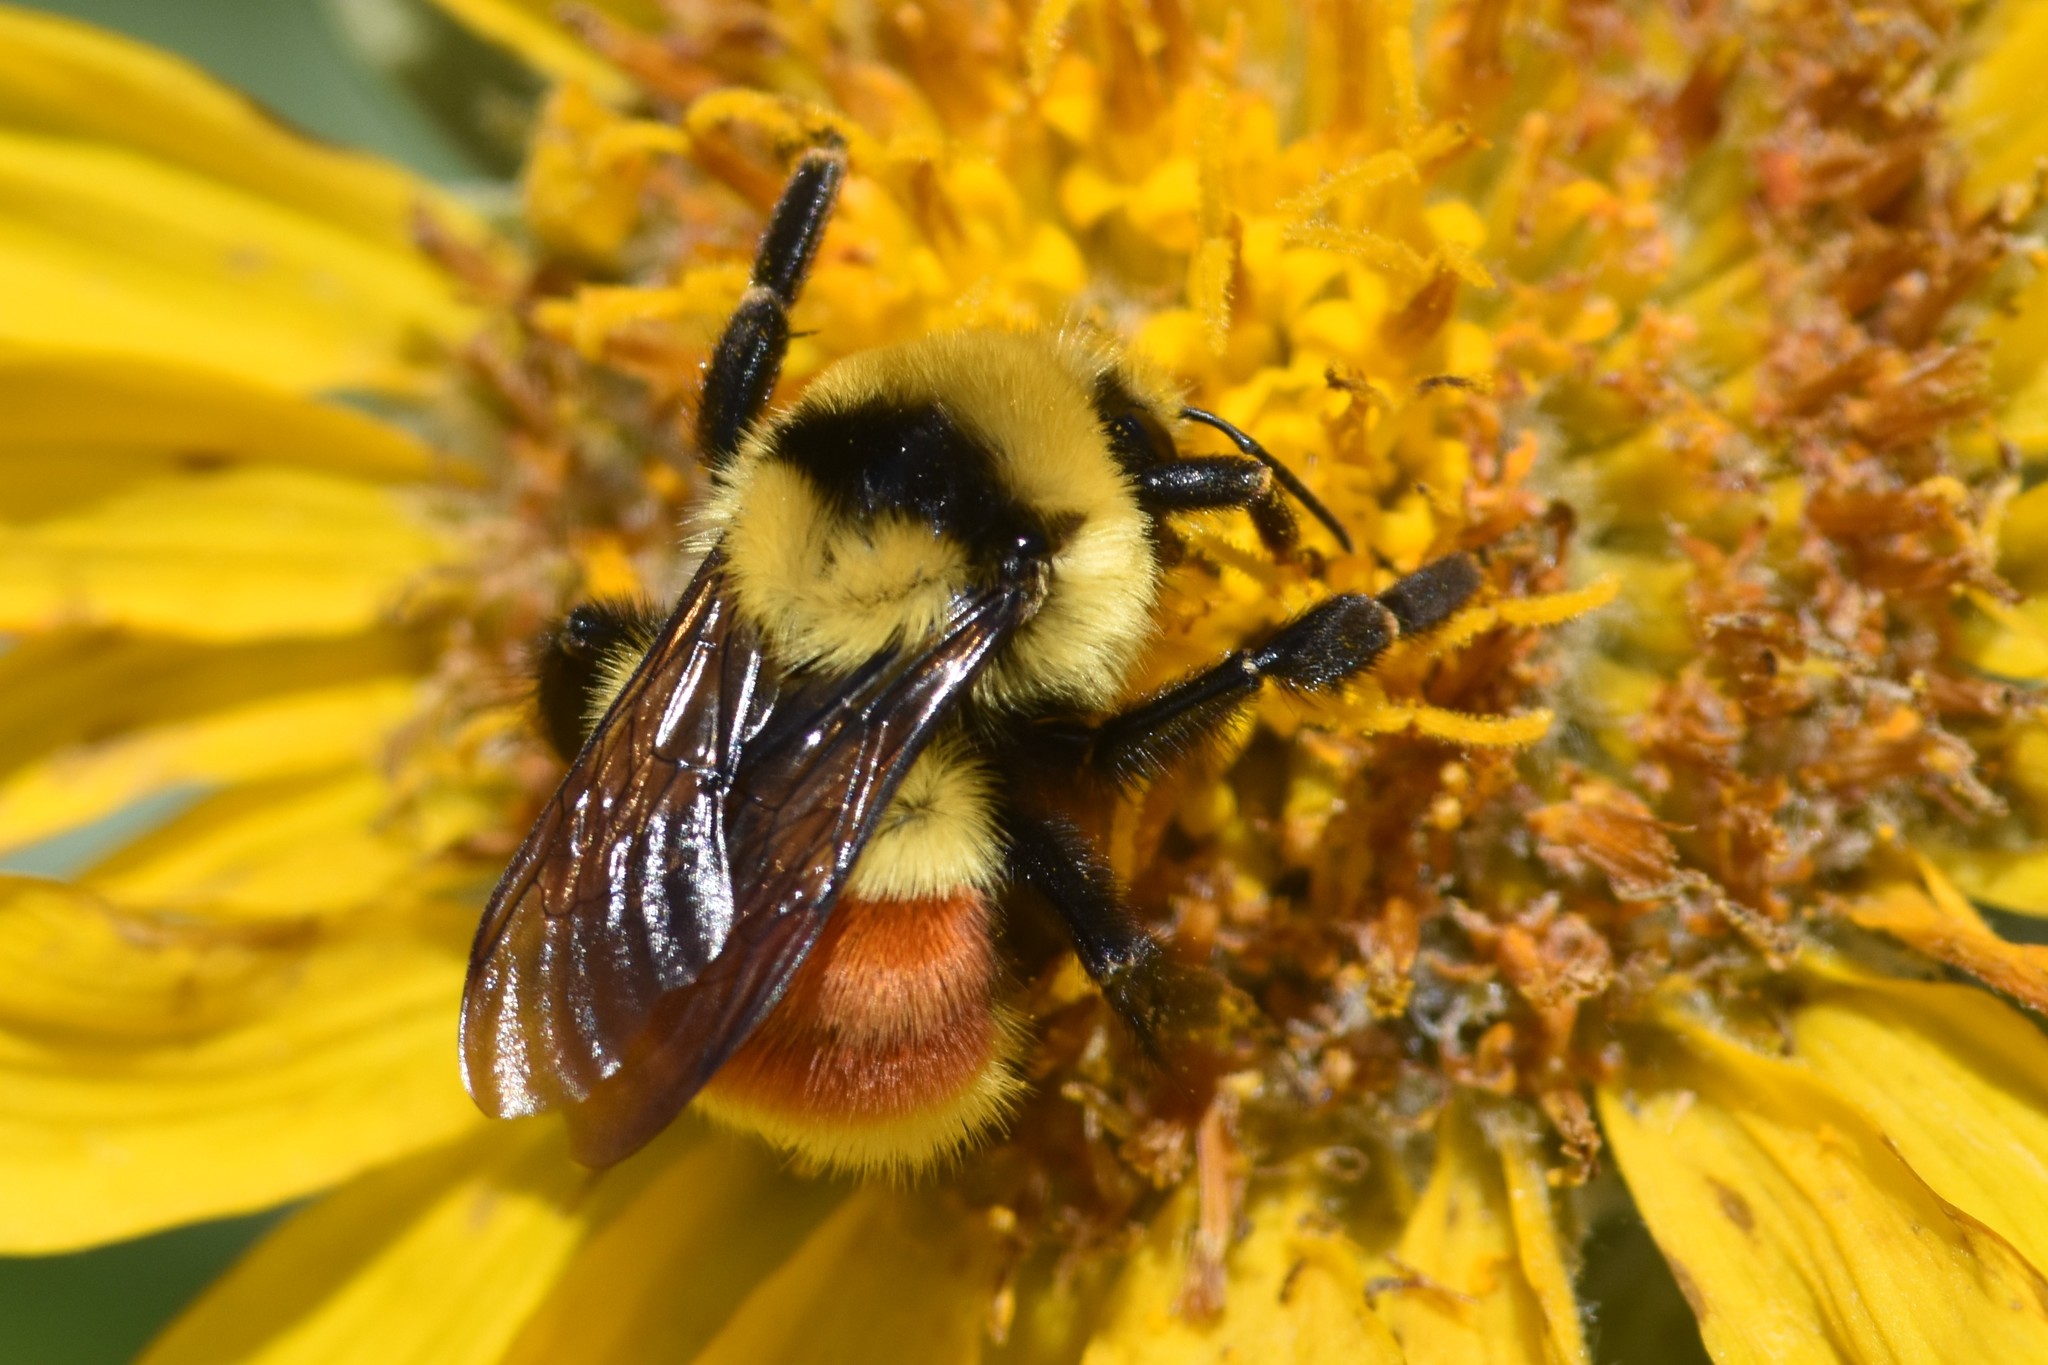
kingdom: Animalia
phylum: Arthropoda
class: Insecta
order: Hymenoptera
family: Apidae
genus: Bombus
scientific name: Bombus huntii
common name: Hunt bumble bee
